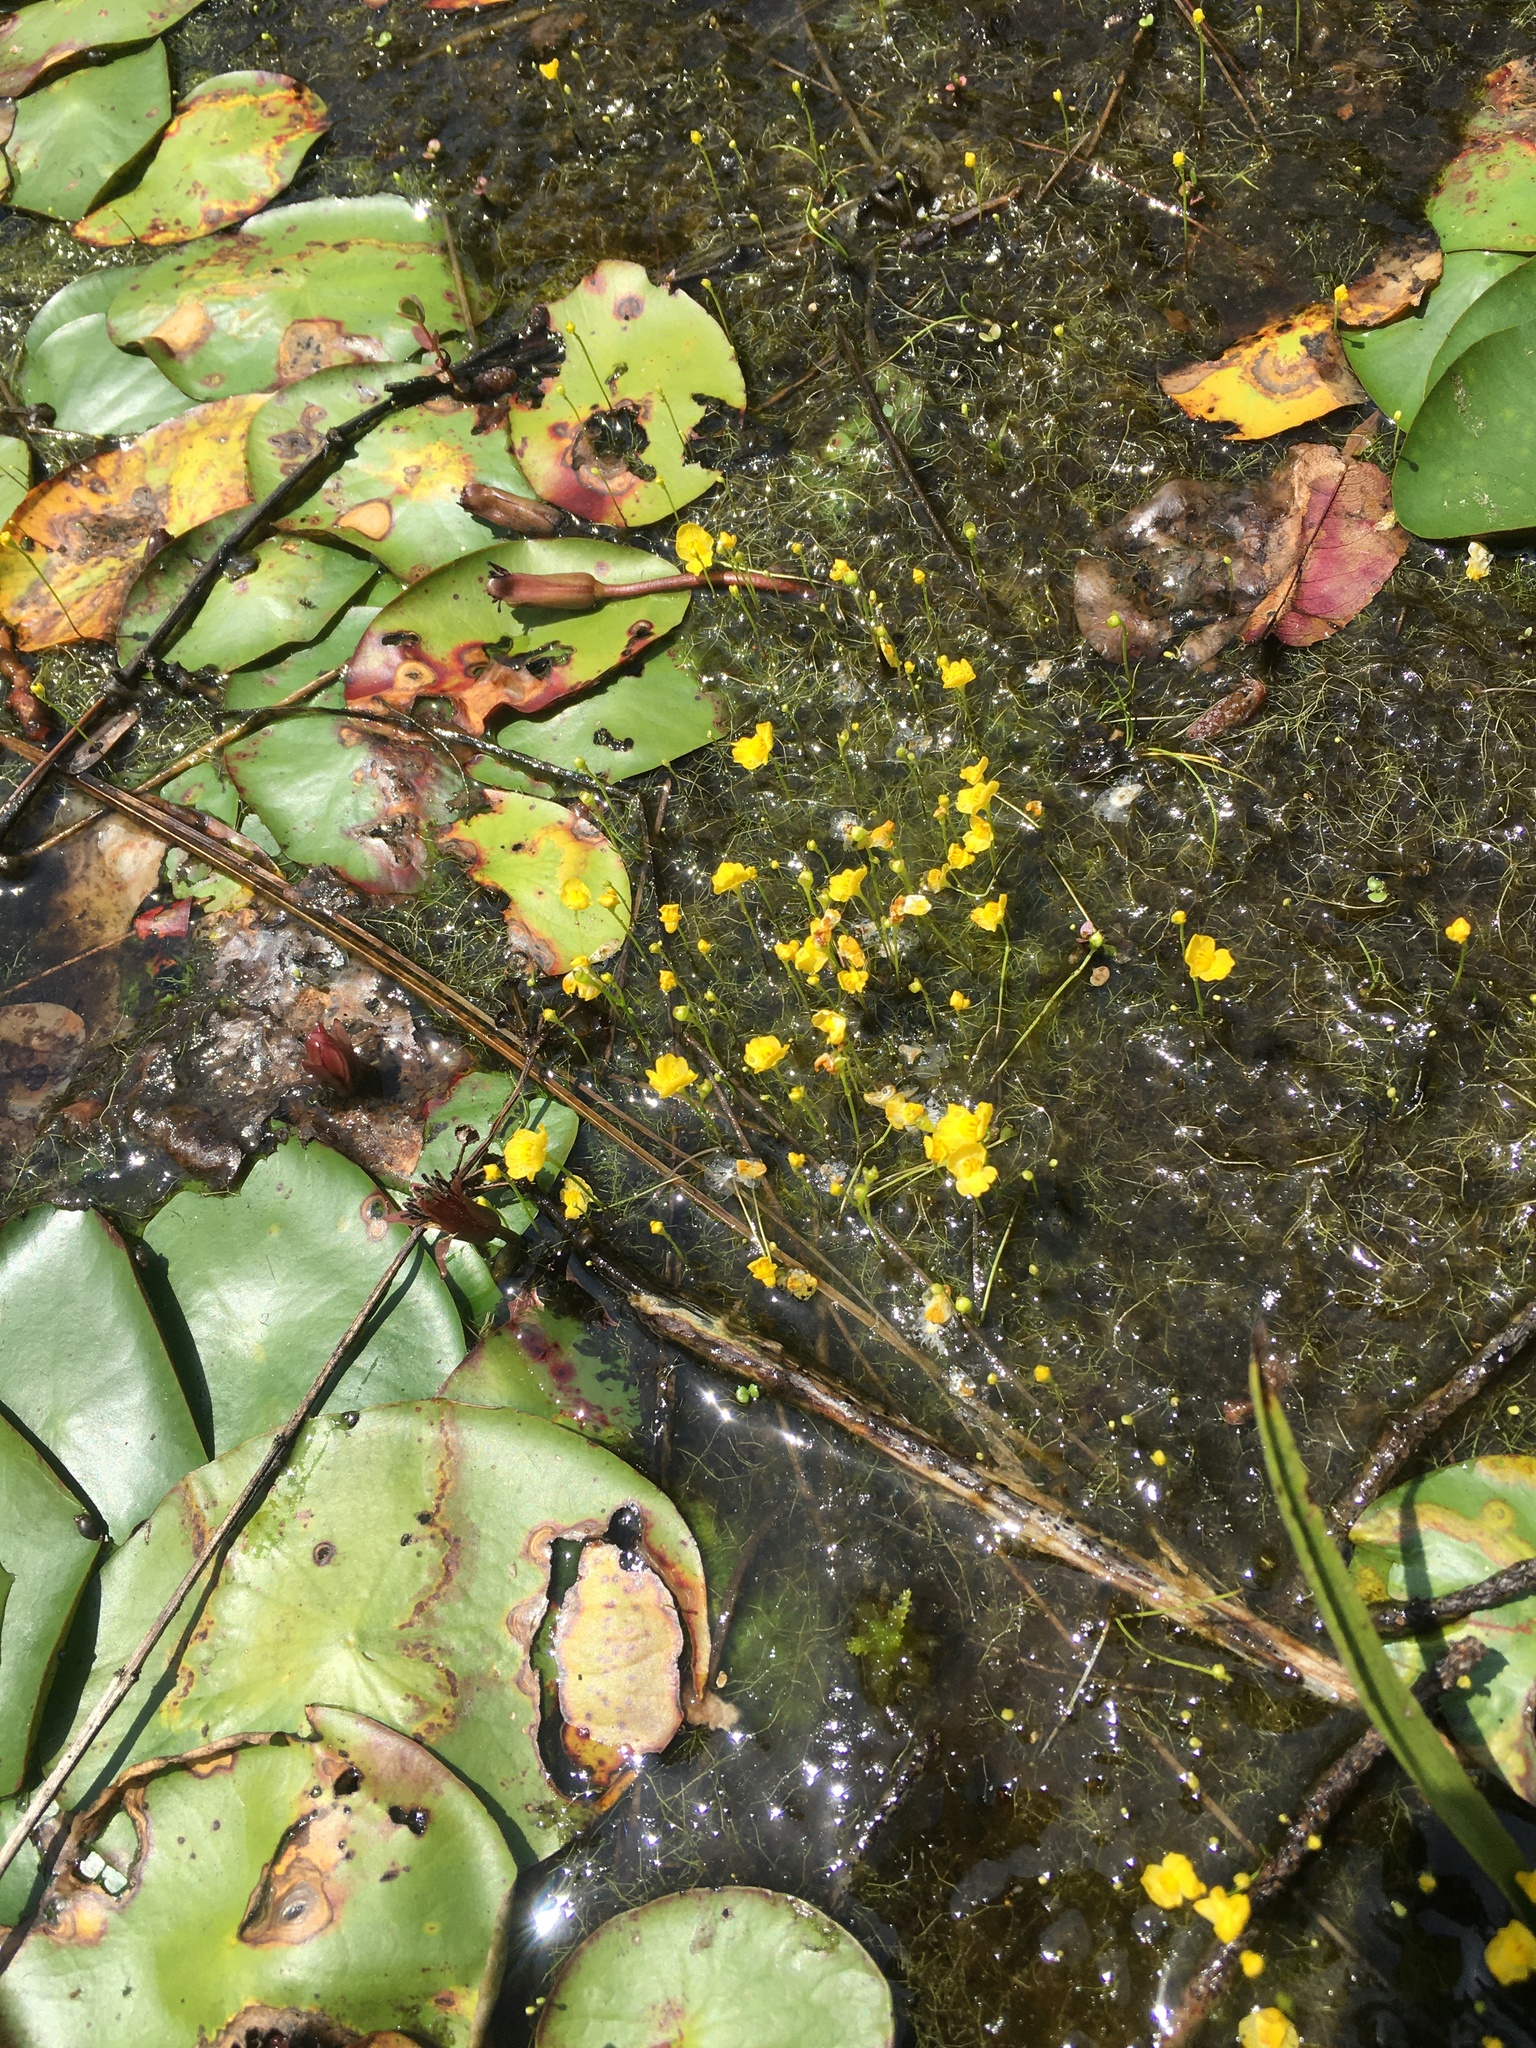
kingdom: Plantae
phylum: Tracheophyta
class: Magnoliopsida
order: Lamiales
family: Lentibulariaceae
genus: Utricularia
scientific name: Utricularia gibba
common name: Humped bladderwort
